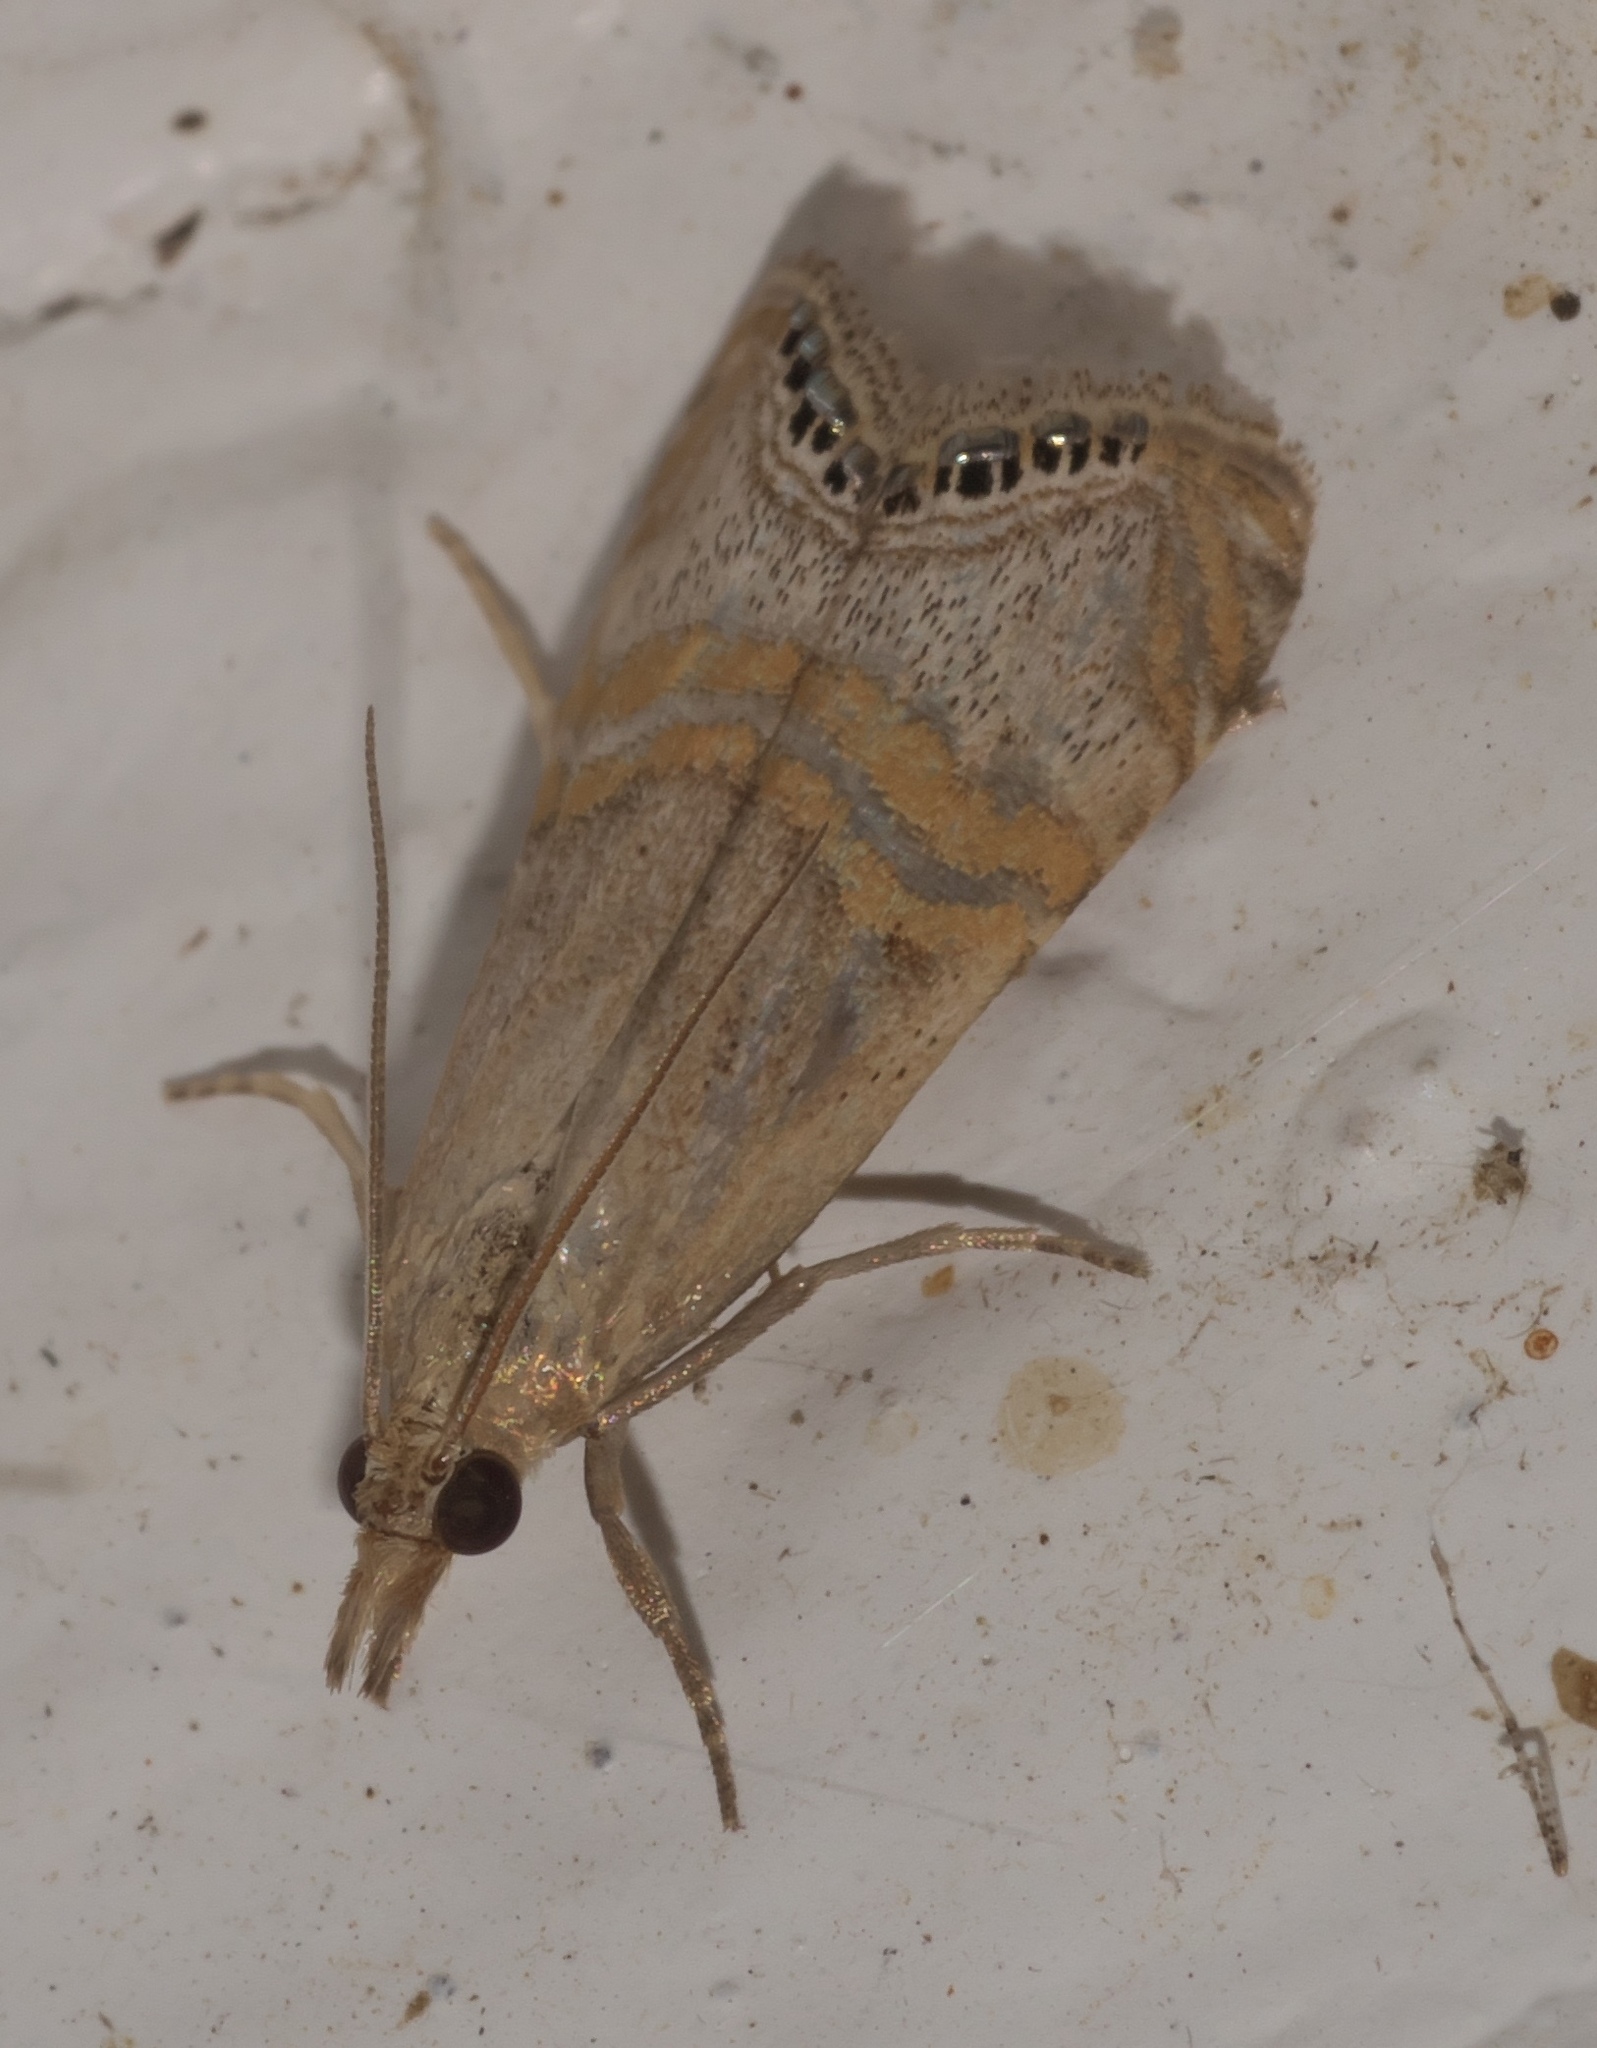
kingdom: Animalia
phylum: Arthropoda
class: Insecta
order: Lepidoptera
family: Crambidae
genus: Euchromius
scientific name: Euchromius ocellea
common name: Necklace veneer moth
